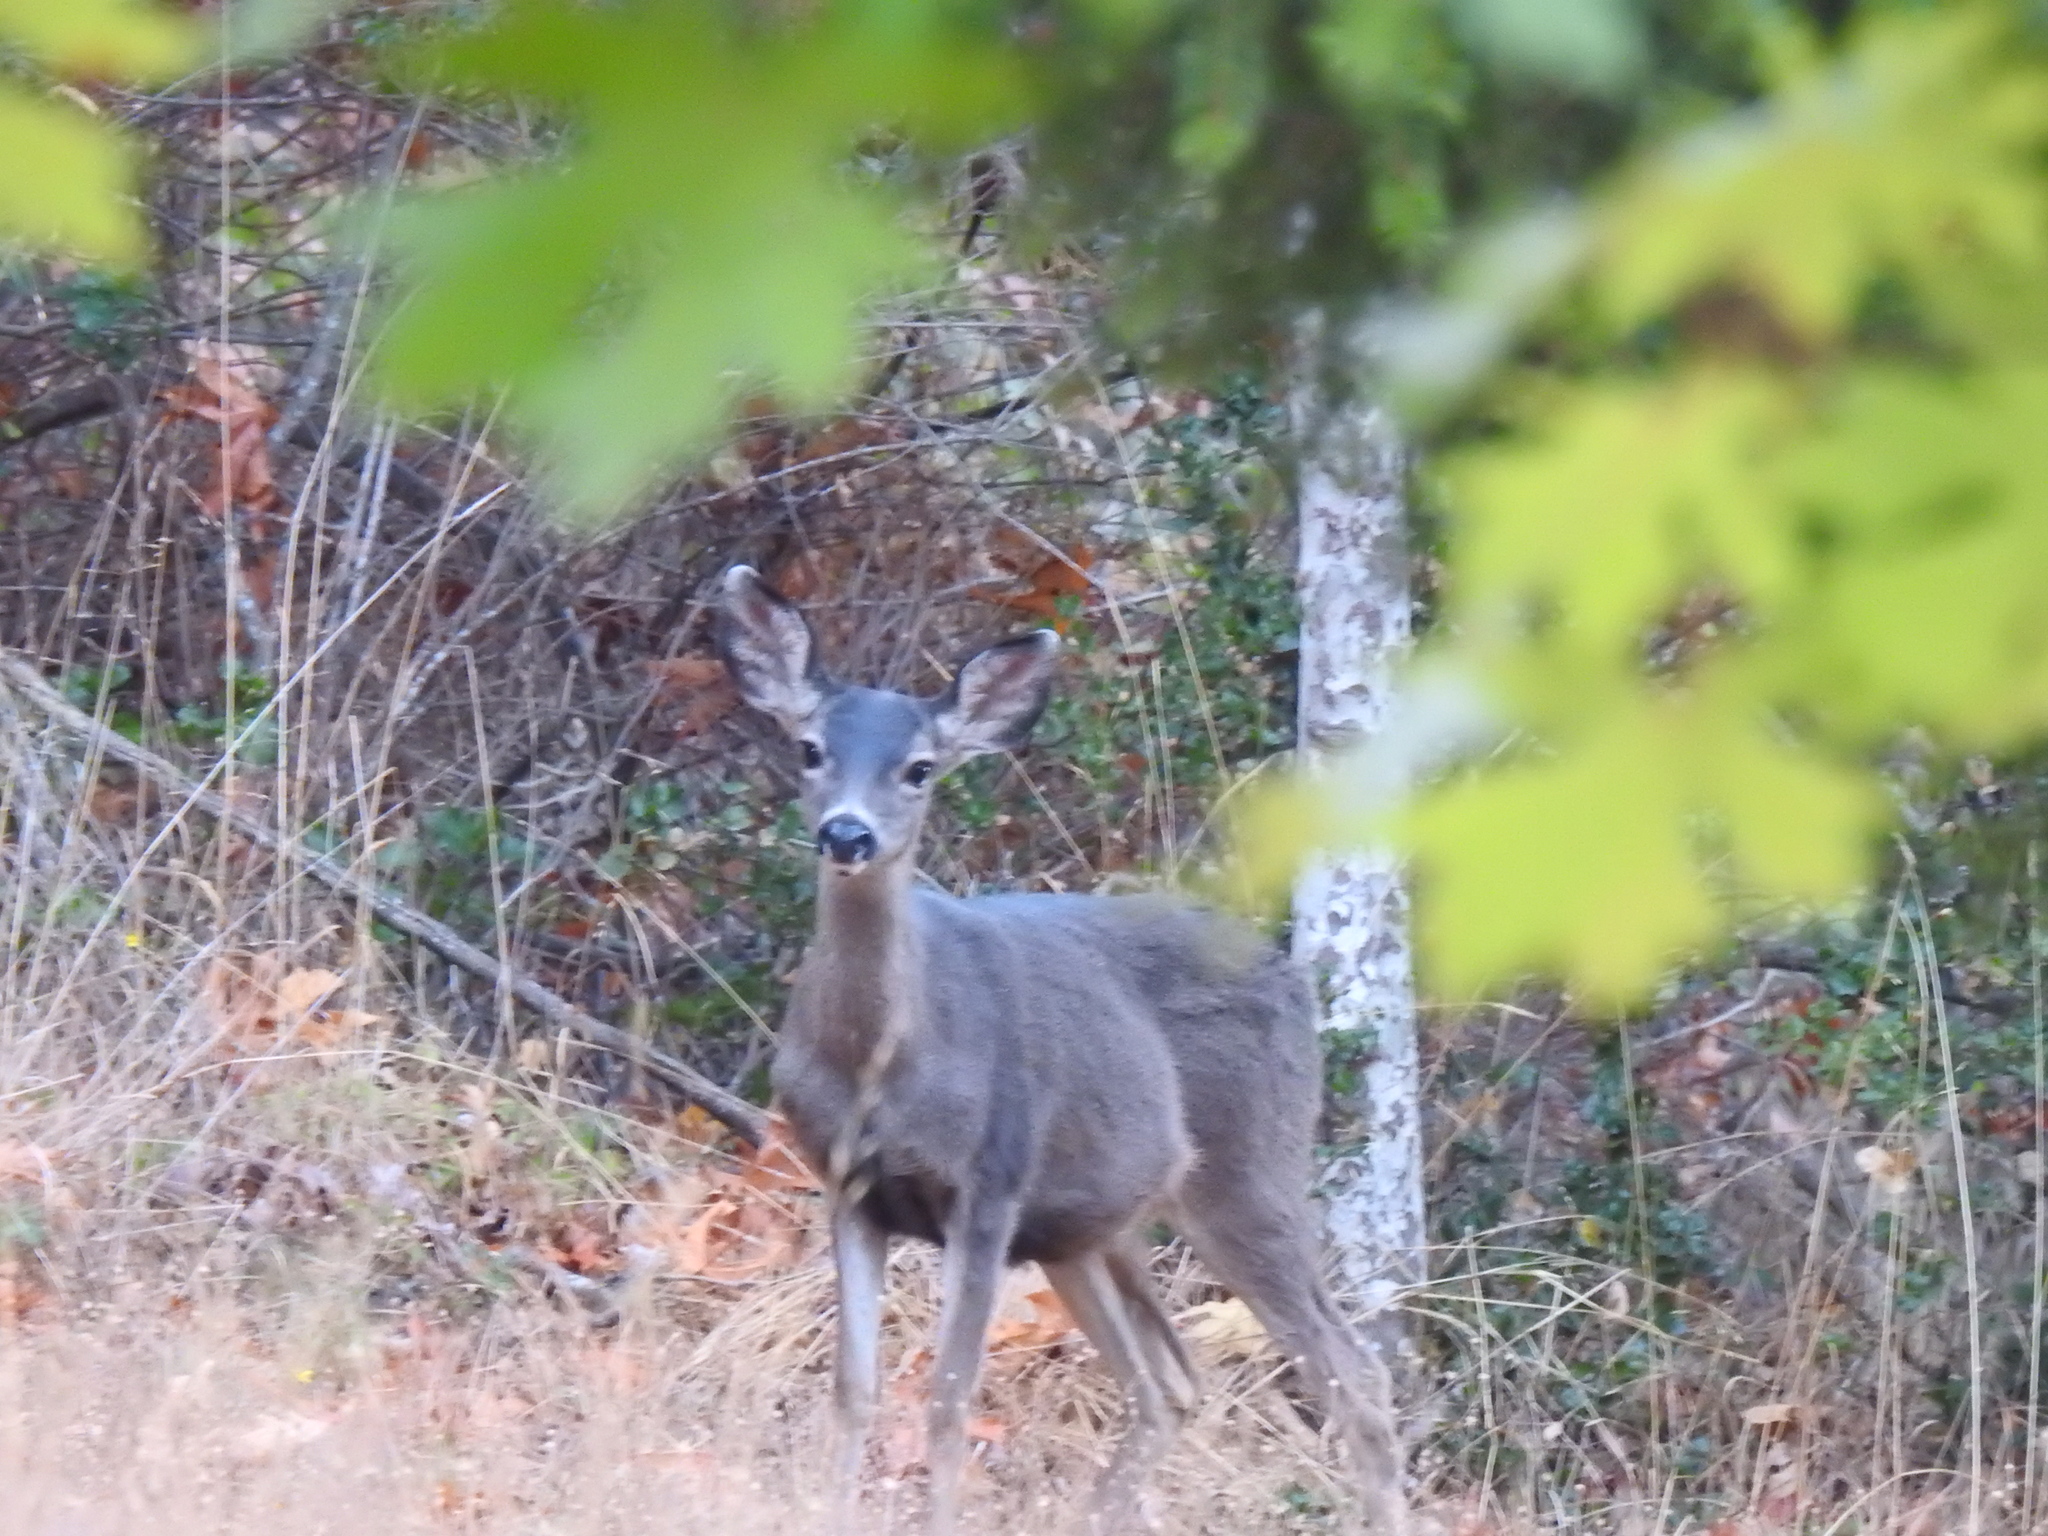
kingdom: Animalia
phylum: Chordata
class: Mammalia
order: Artiodactyla
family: Cervidae
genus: Odocoileus
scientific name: Odocoileus hemionus
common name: Mule deer
